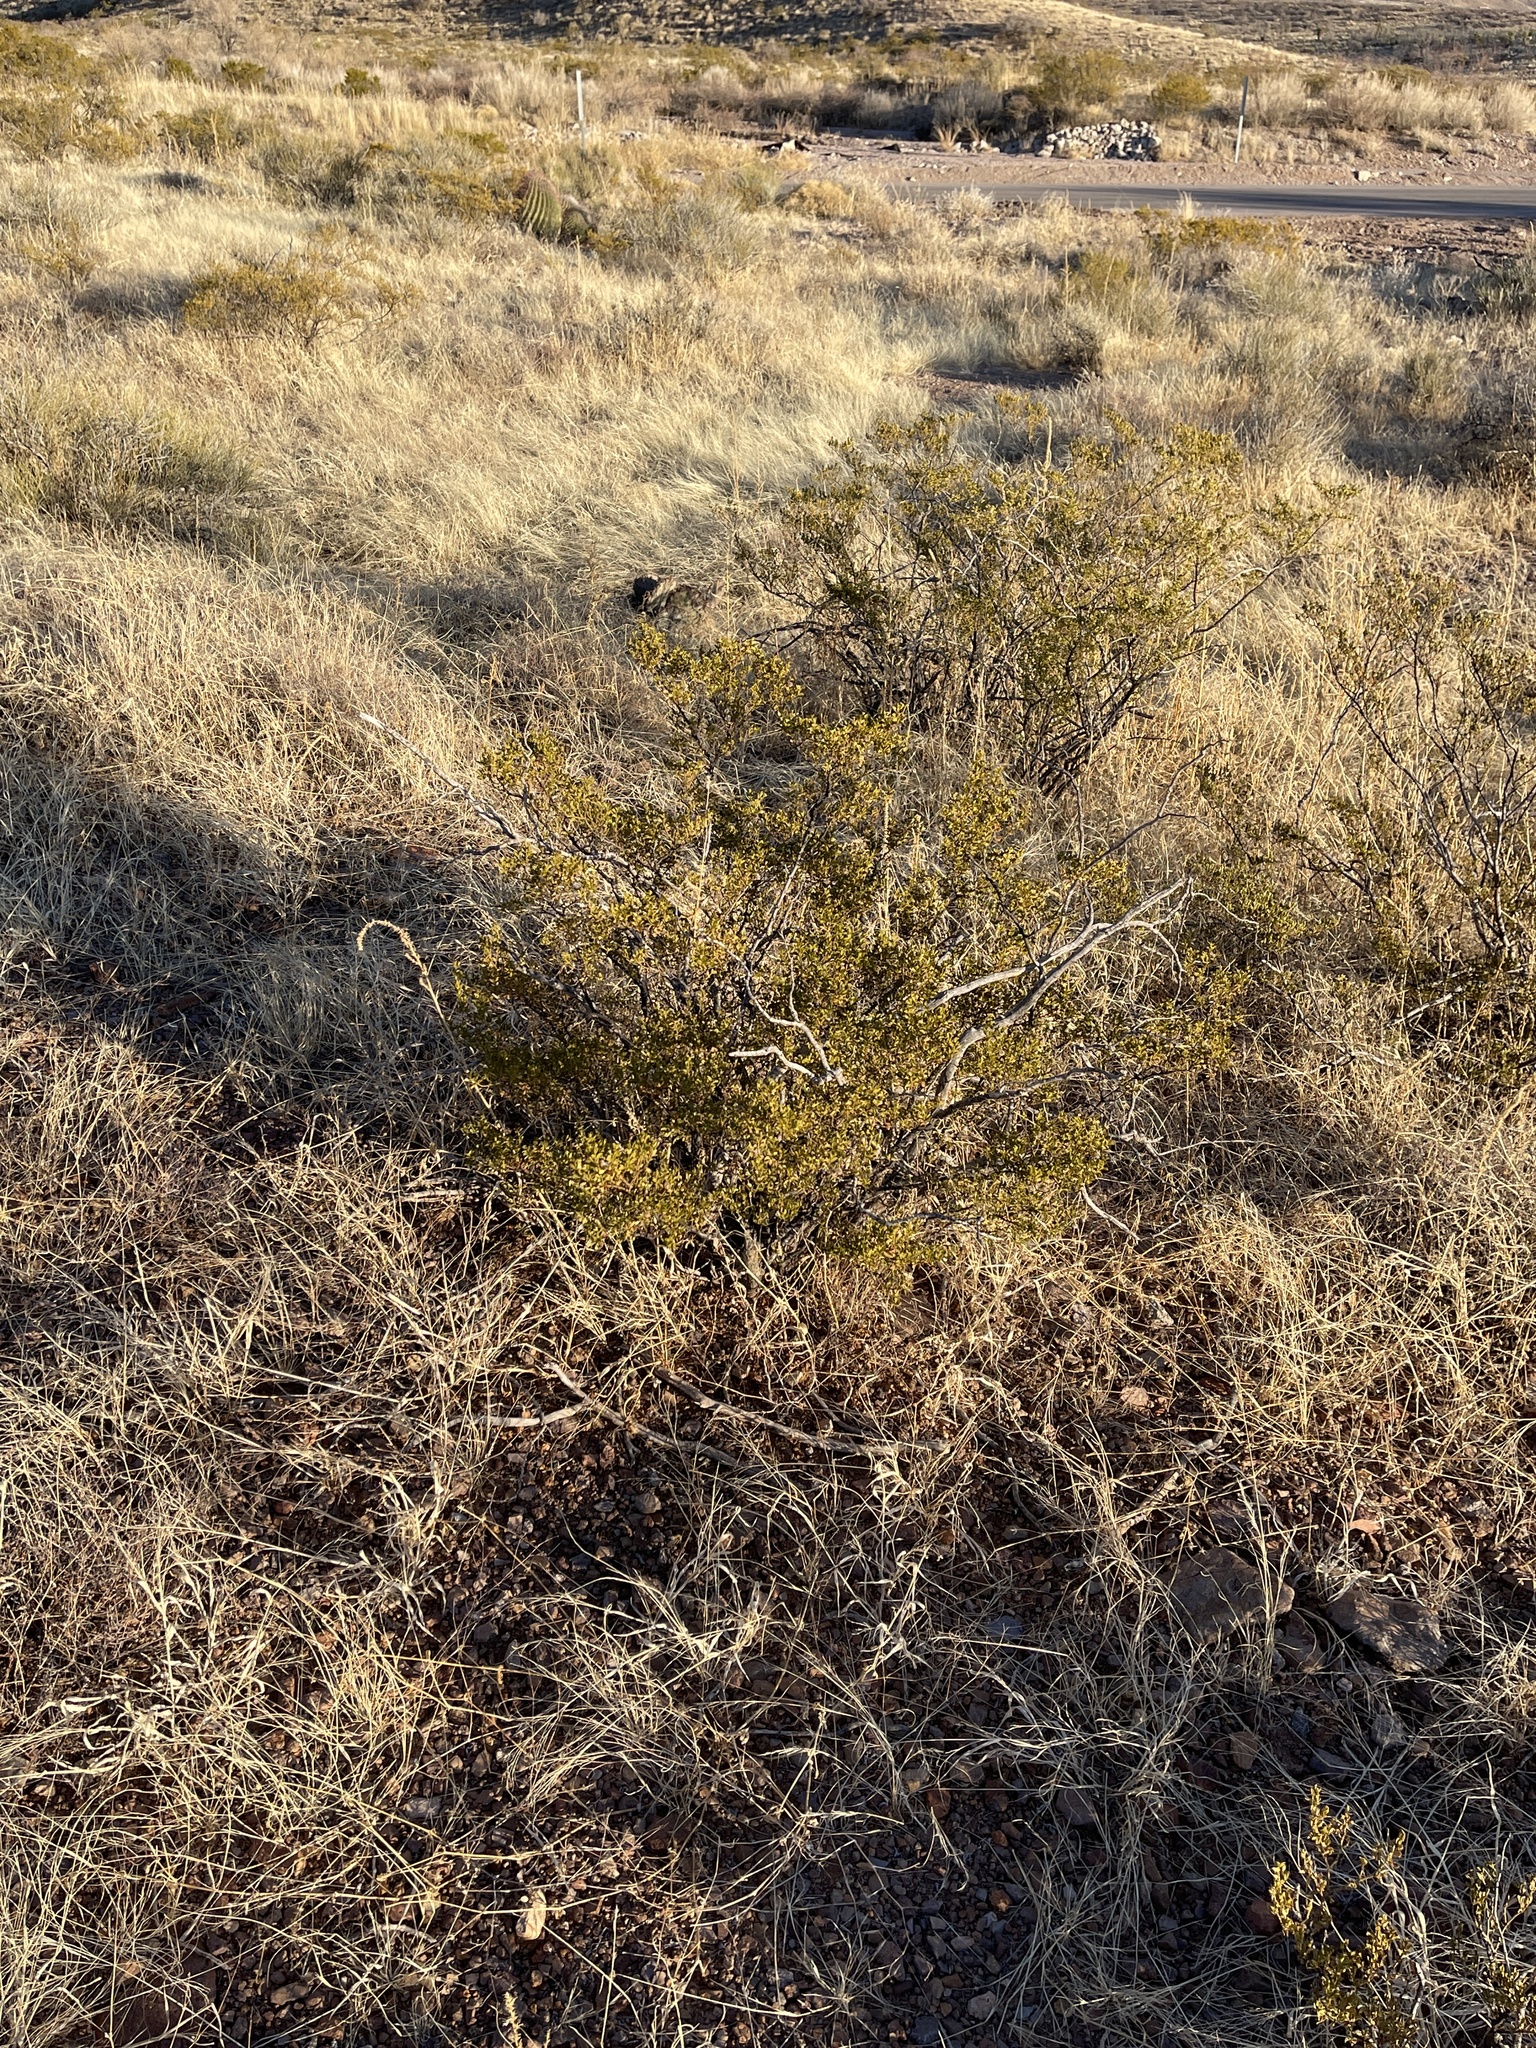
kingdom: Plantae
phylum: Tracheophyta
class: Magnoliopsida
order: Zygophyllales
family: Zygophyllaceae
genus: Larrea
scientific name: Larrea tridentata
